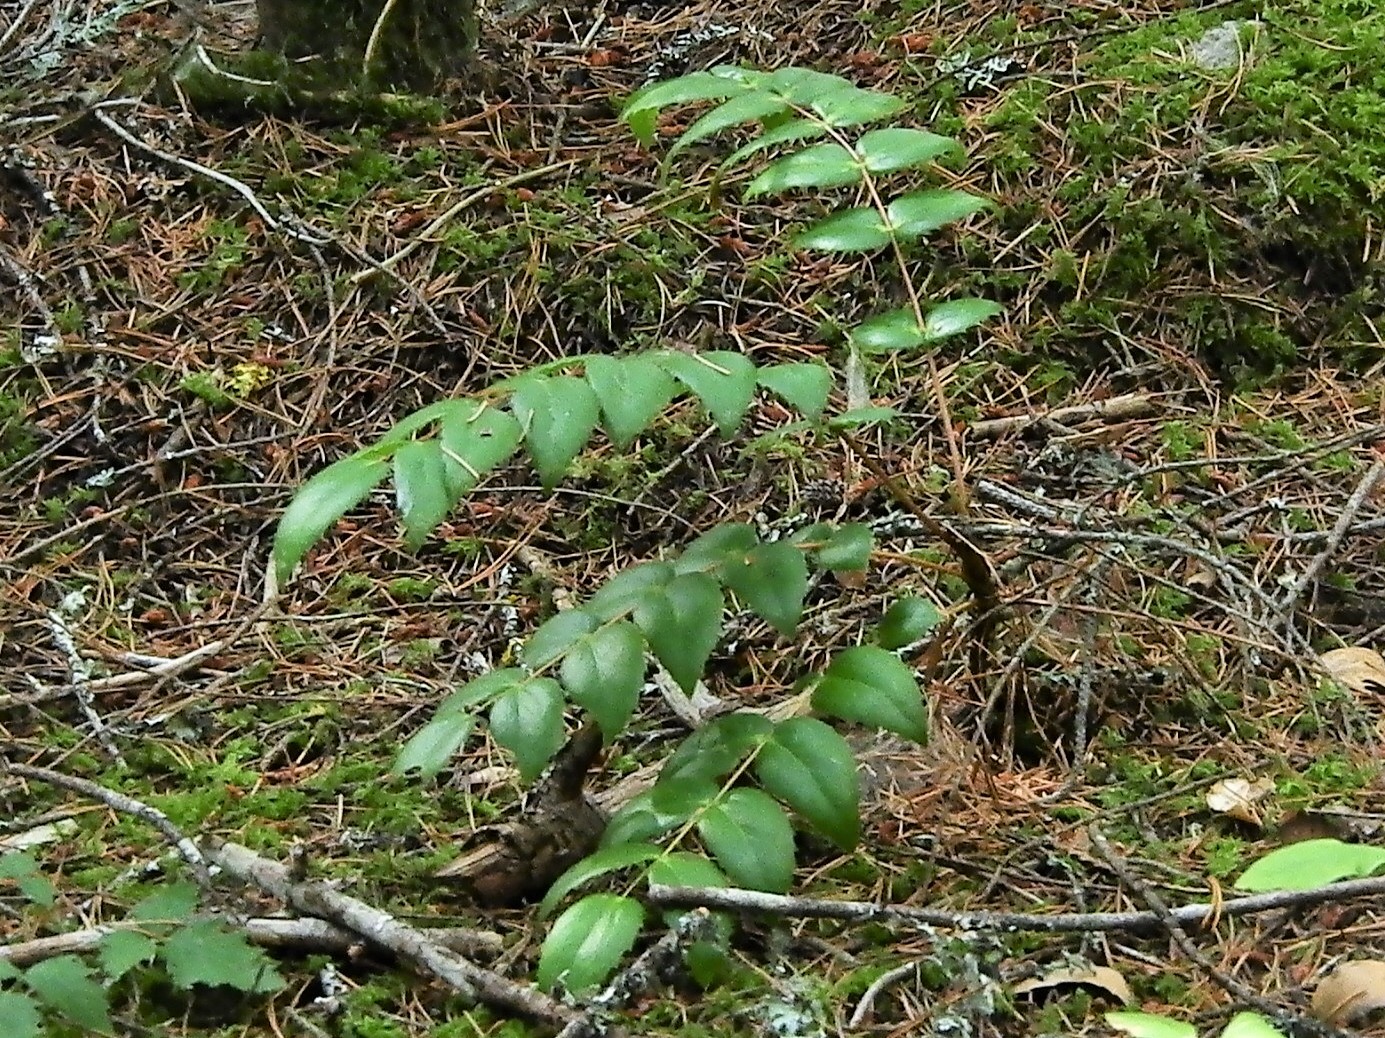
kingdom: Plantae
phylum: Tracheophyta
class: Magnoliopsida
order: Ranunculales
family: Berberidaceae
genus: Mahonia
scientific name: Mahonia nervosa
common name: Cascade oregon-grape
